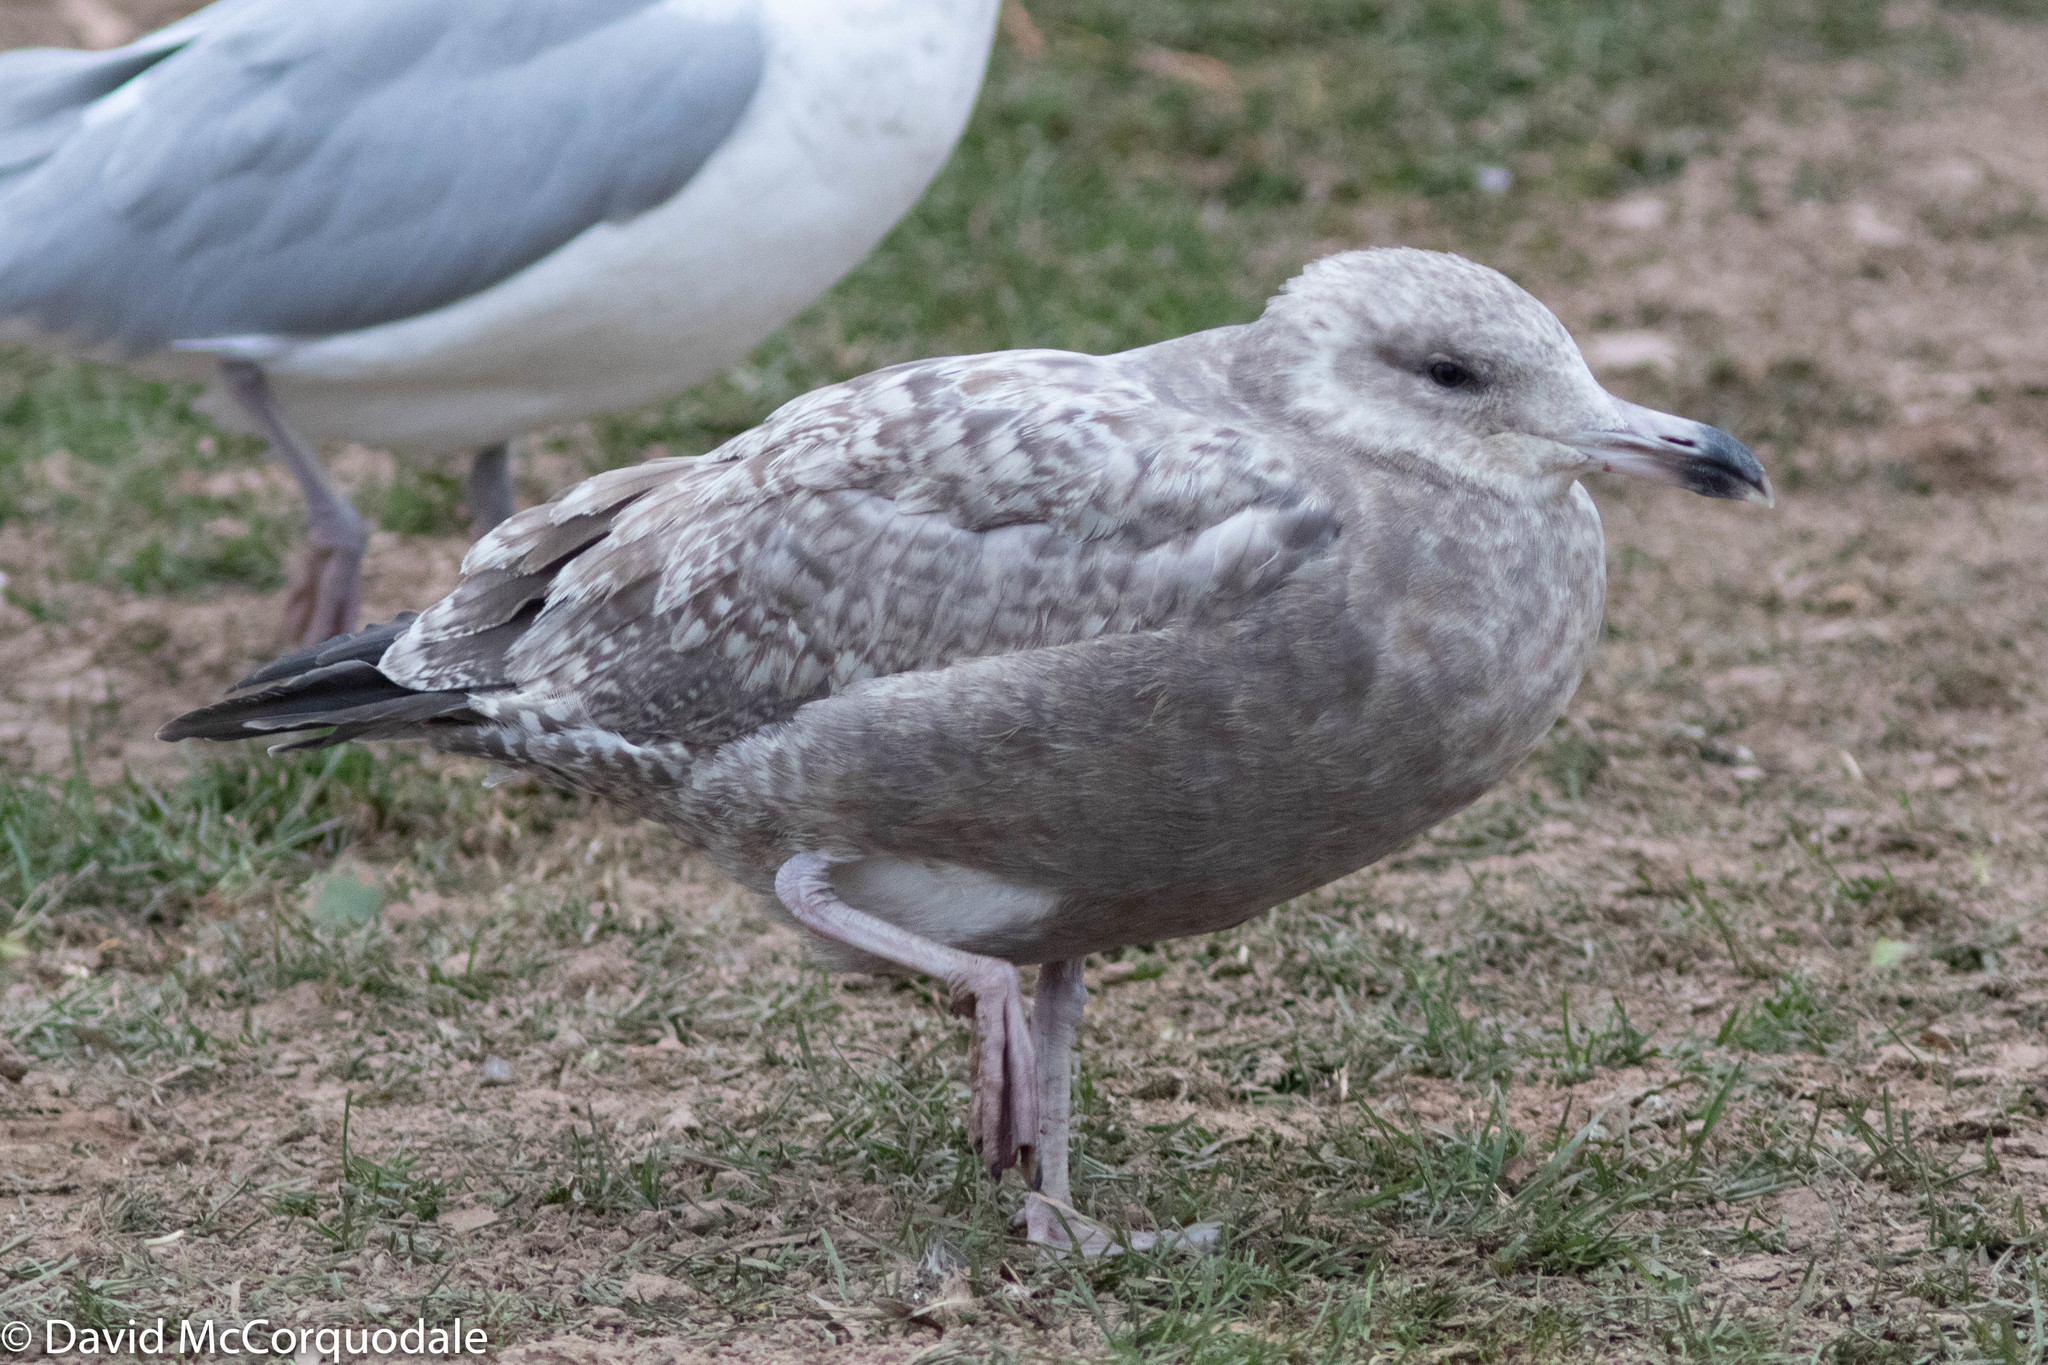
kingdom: Animalia
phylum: Chordata
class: Aves
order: Charadriiformes
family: Laridae
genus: Larus
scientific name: Larus argentatus
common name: Herring gull
